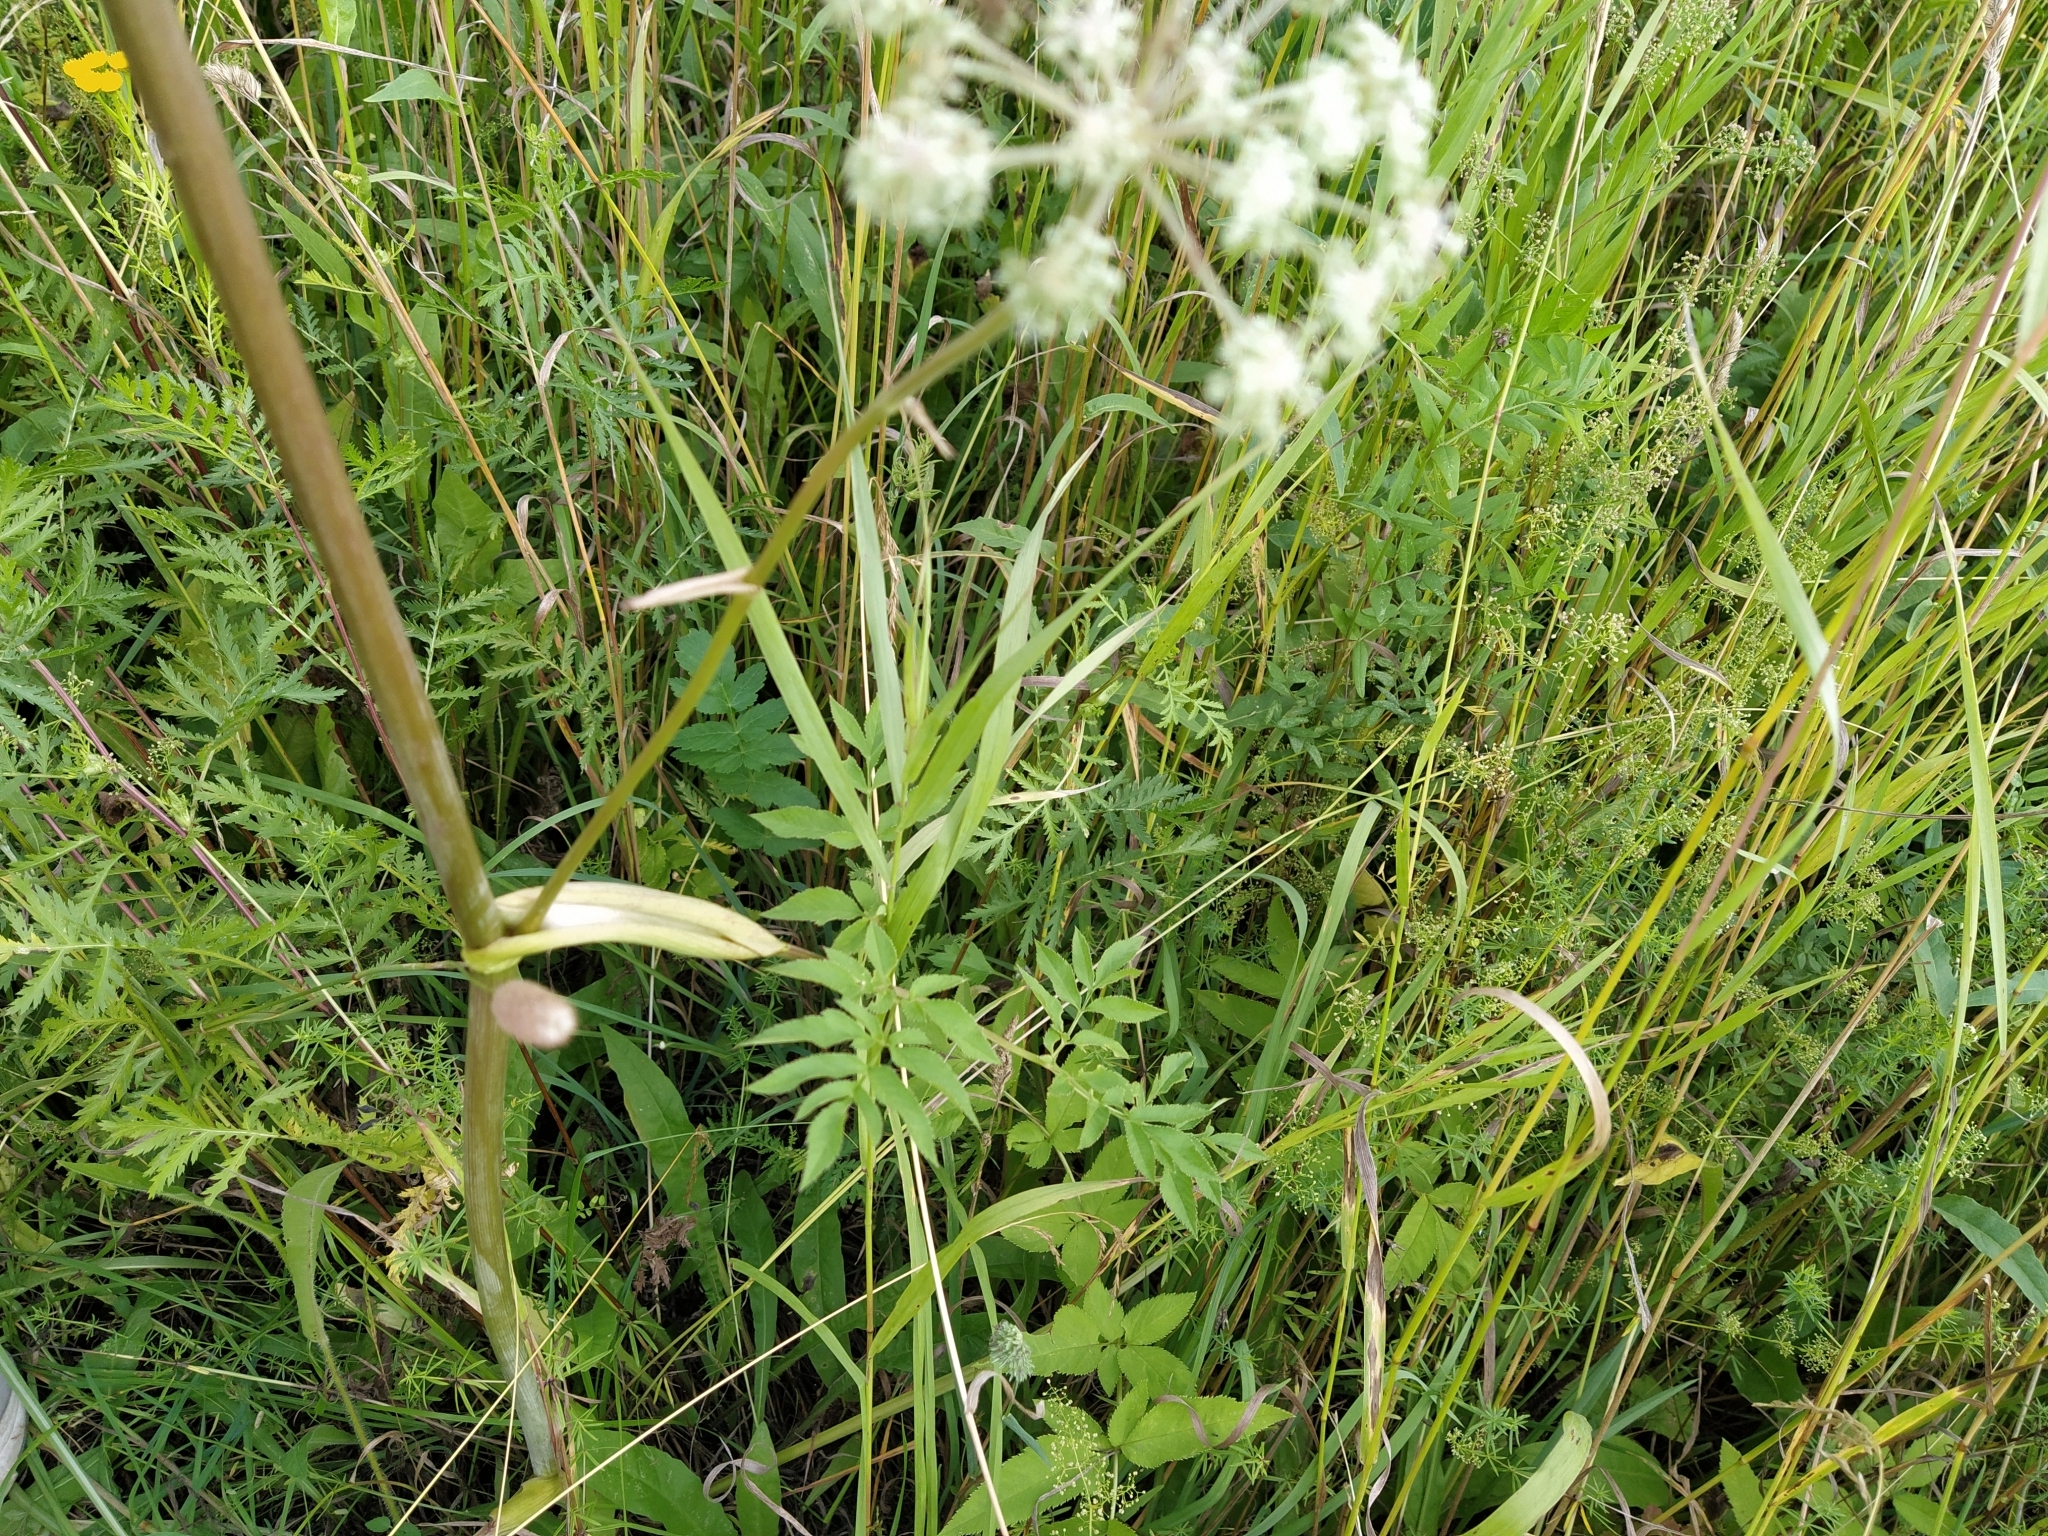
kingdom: Plantae
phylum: Tracheophyta
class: Magnoliopsida
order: Apiales
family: Apiaceae
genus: Angelica
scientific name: Angelica sylvestris
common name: Wild angelica
